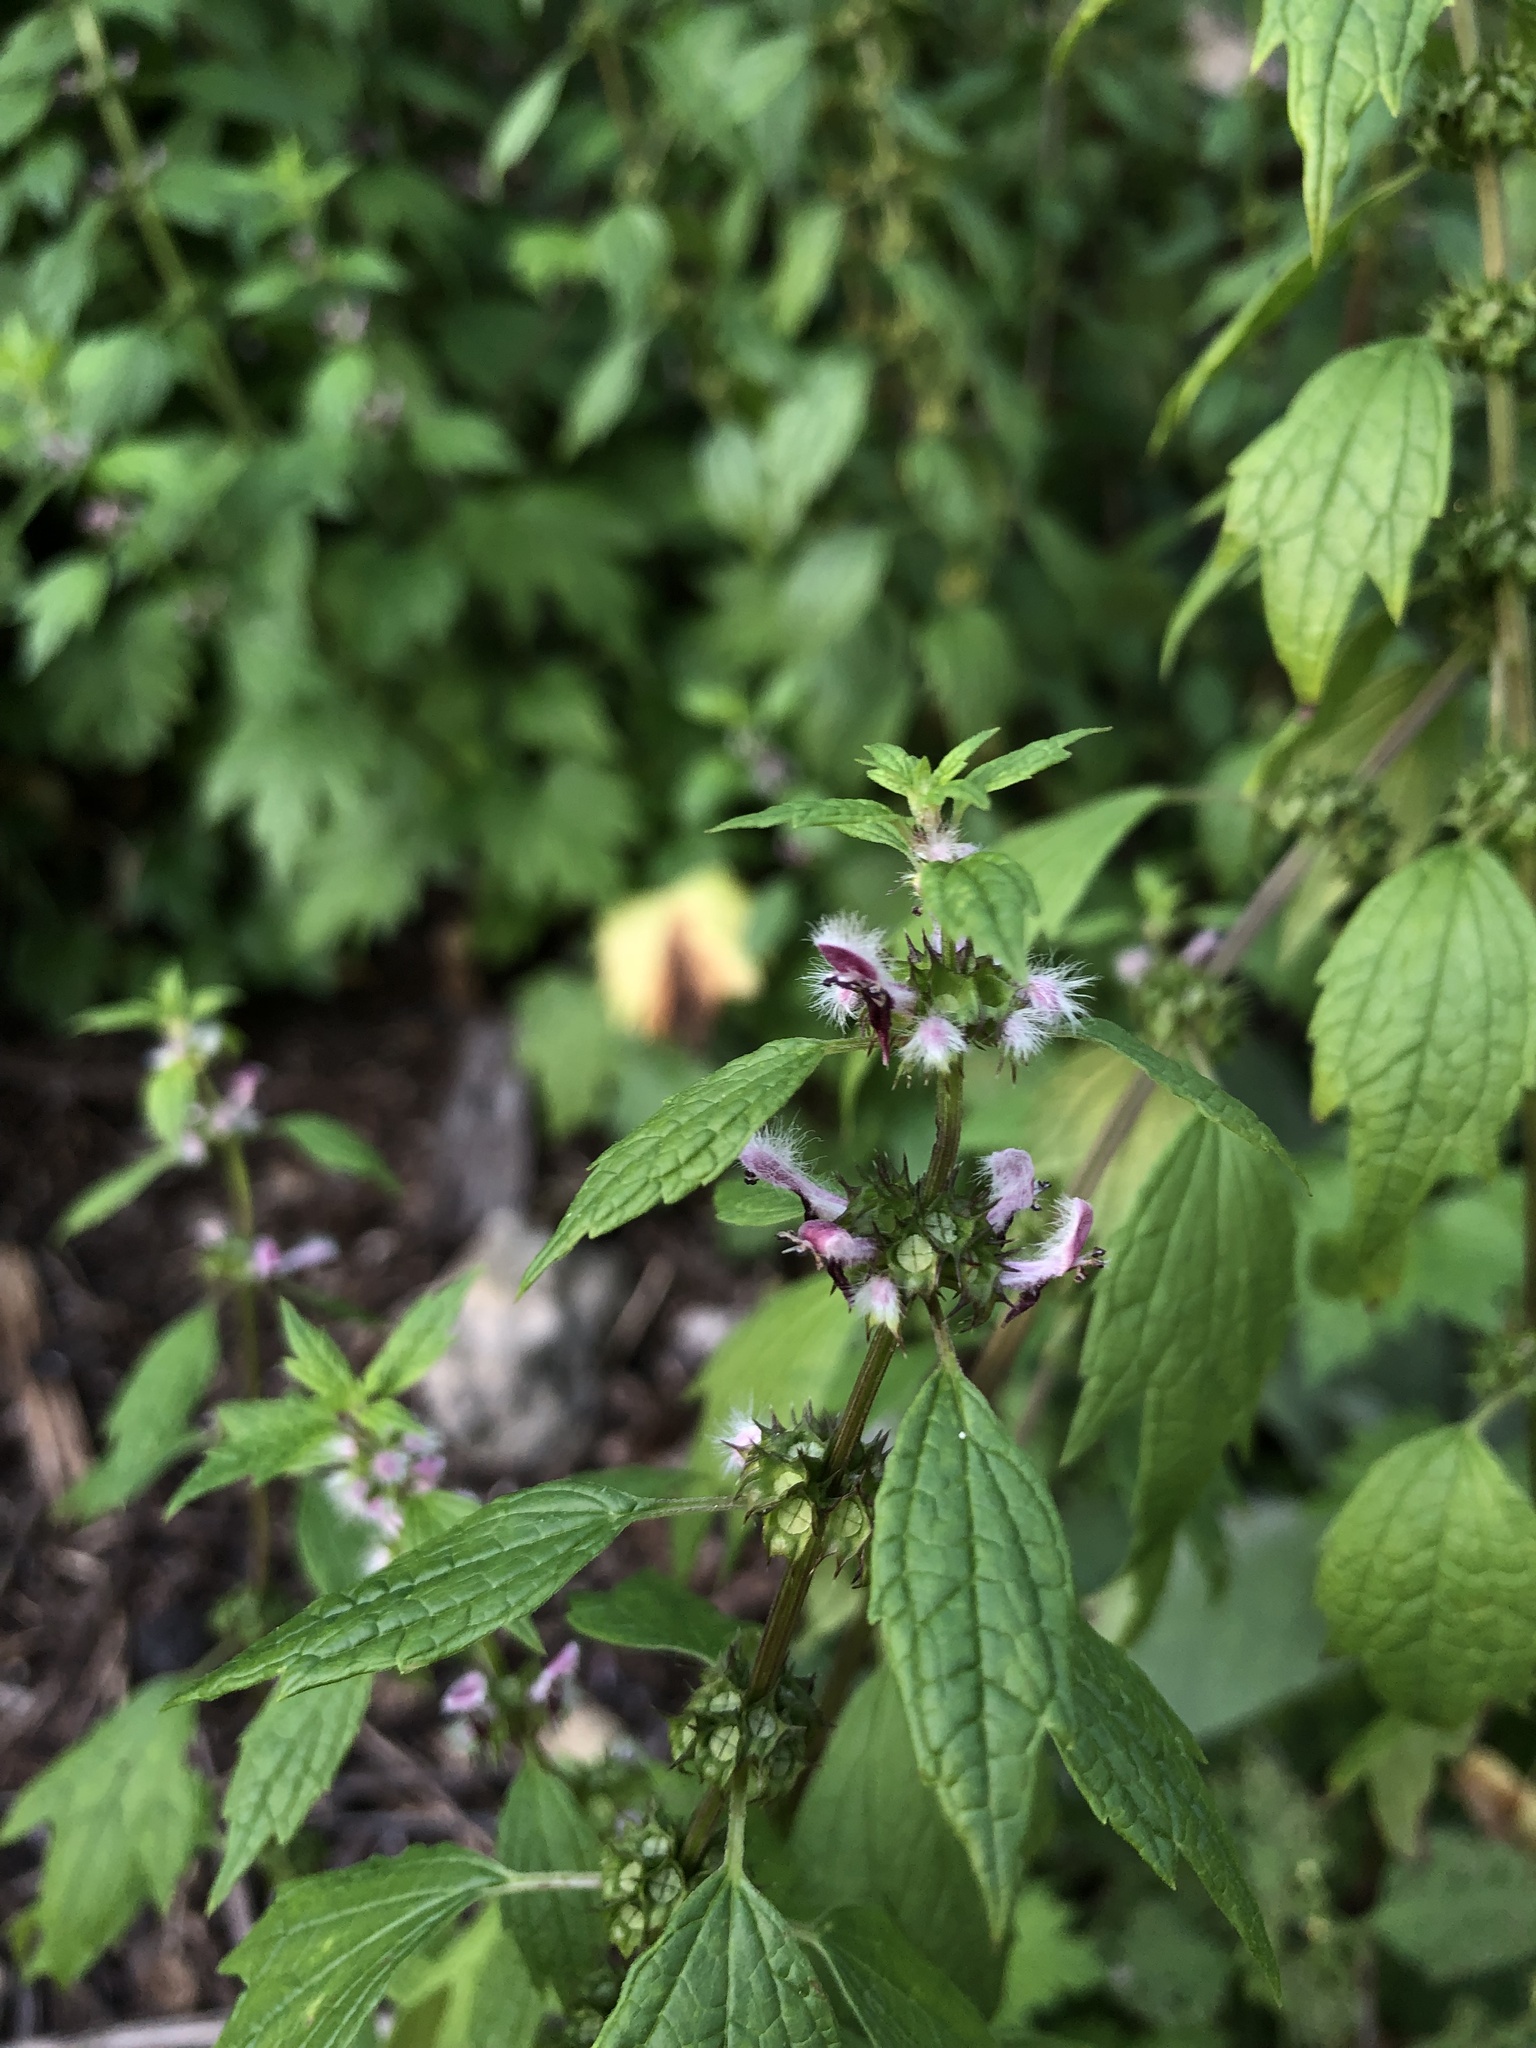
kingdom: Plantae
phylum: Tracheophyta
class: Magnoliopsida
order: Lamiales
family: Lamiaceae
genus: Leonurus
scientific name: Leonurus cardiaca
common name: Motherwort
